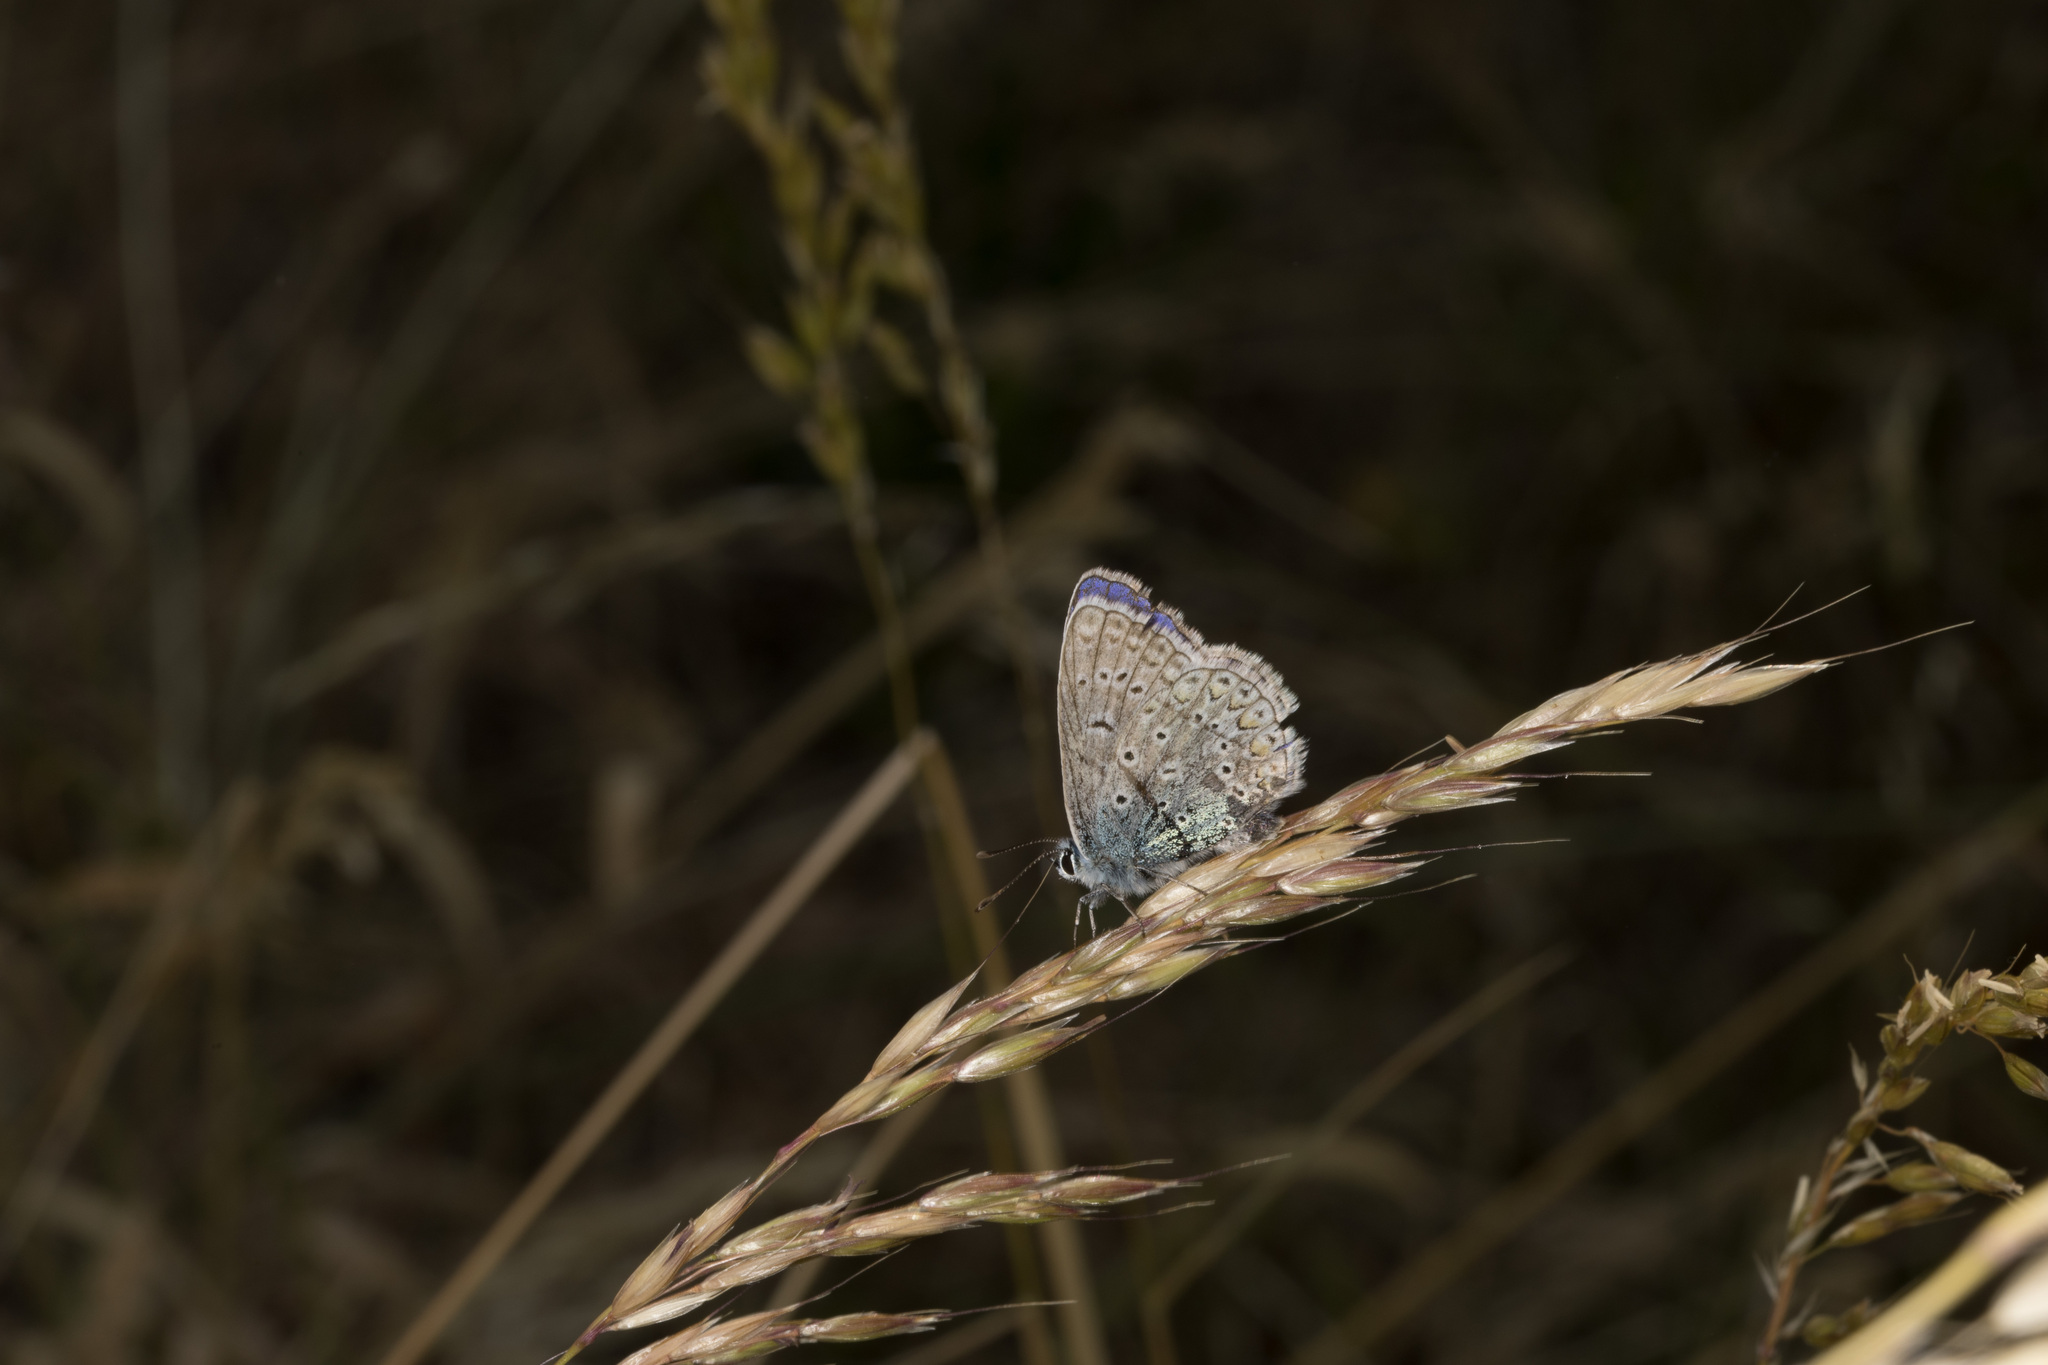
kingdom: Animalia
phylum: Arthropoda
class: Insecta
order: Lepidoptera
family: Lycaenidae
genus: Polyommatus
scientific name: Polyommatus icarus
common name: Common blue
